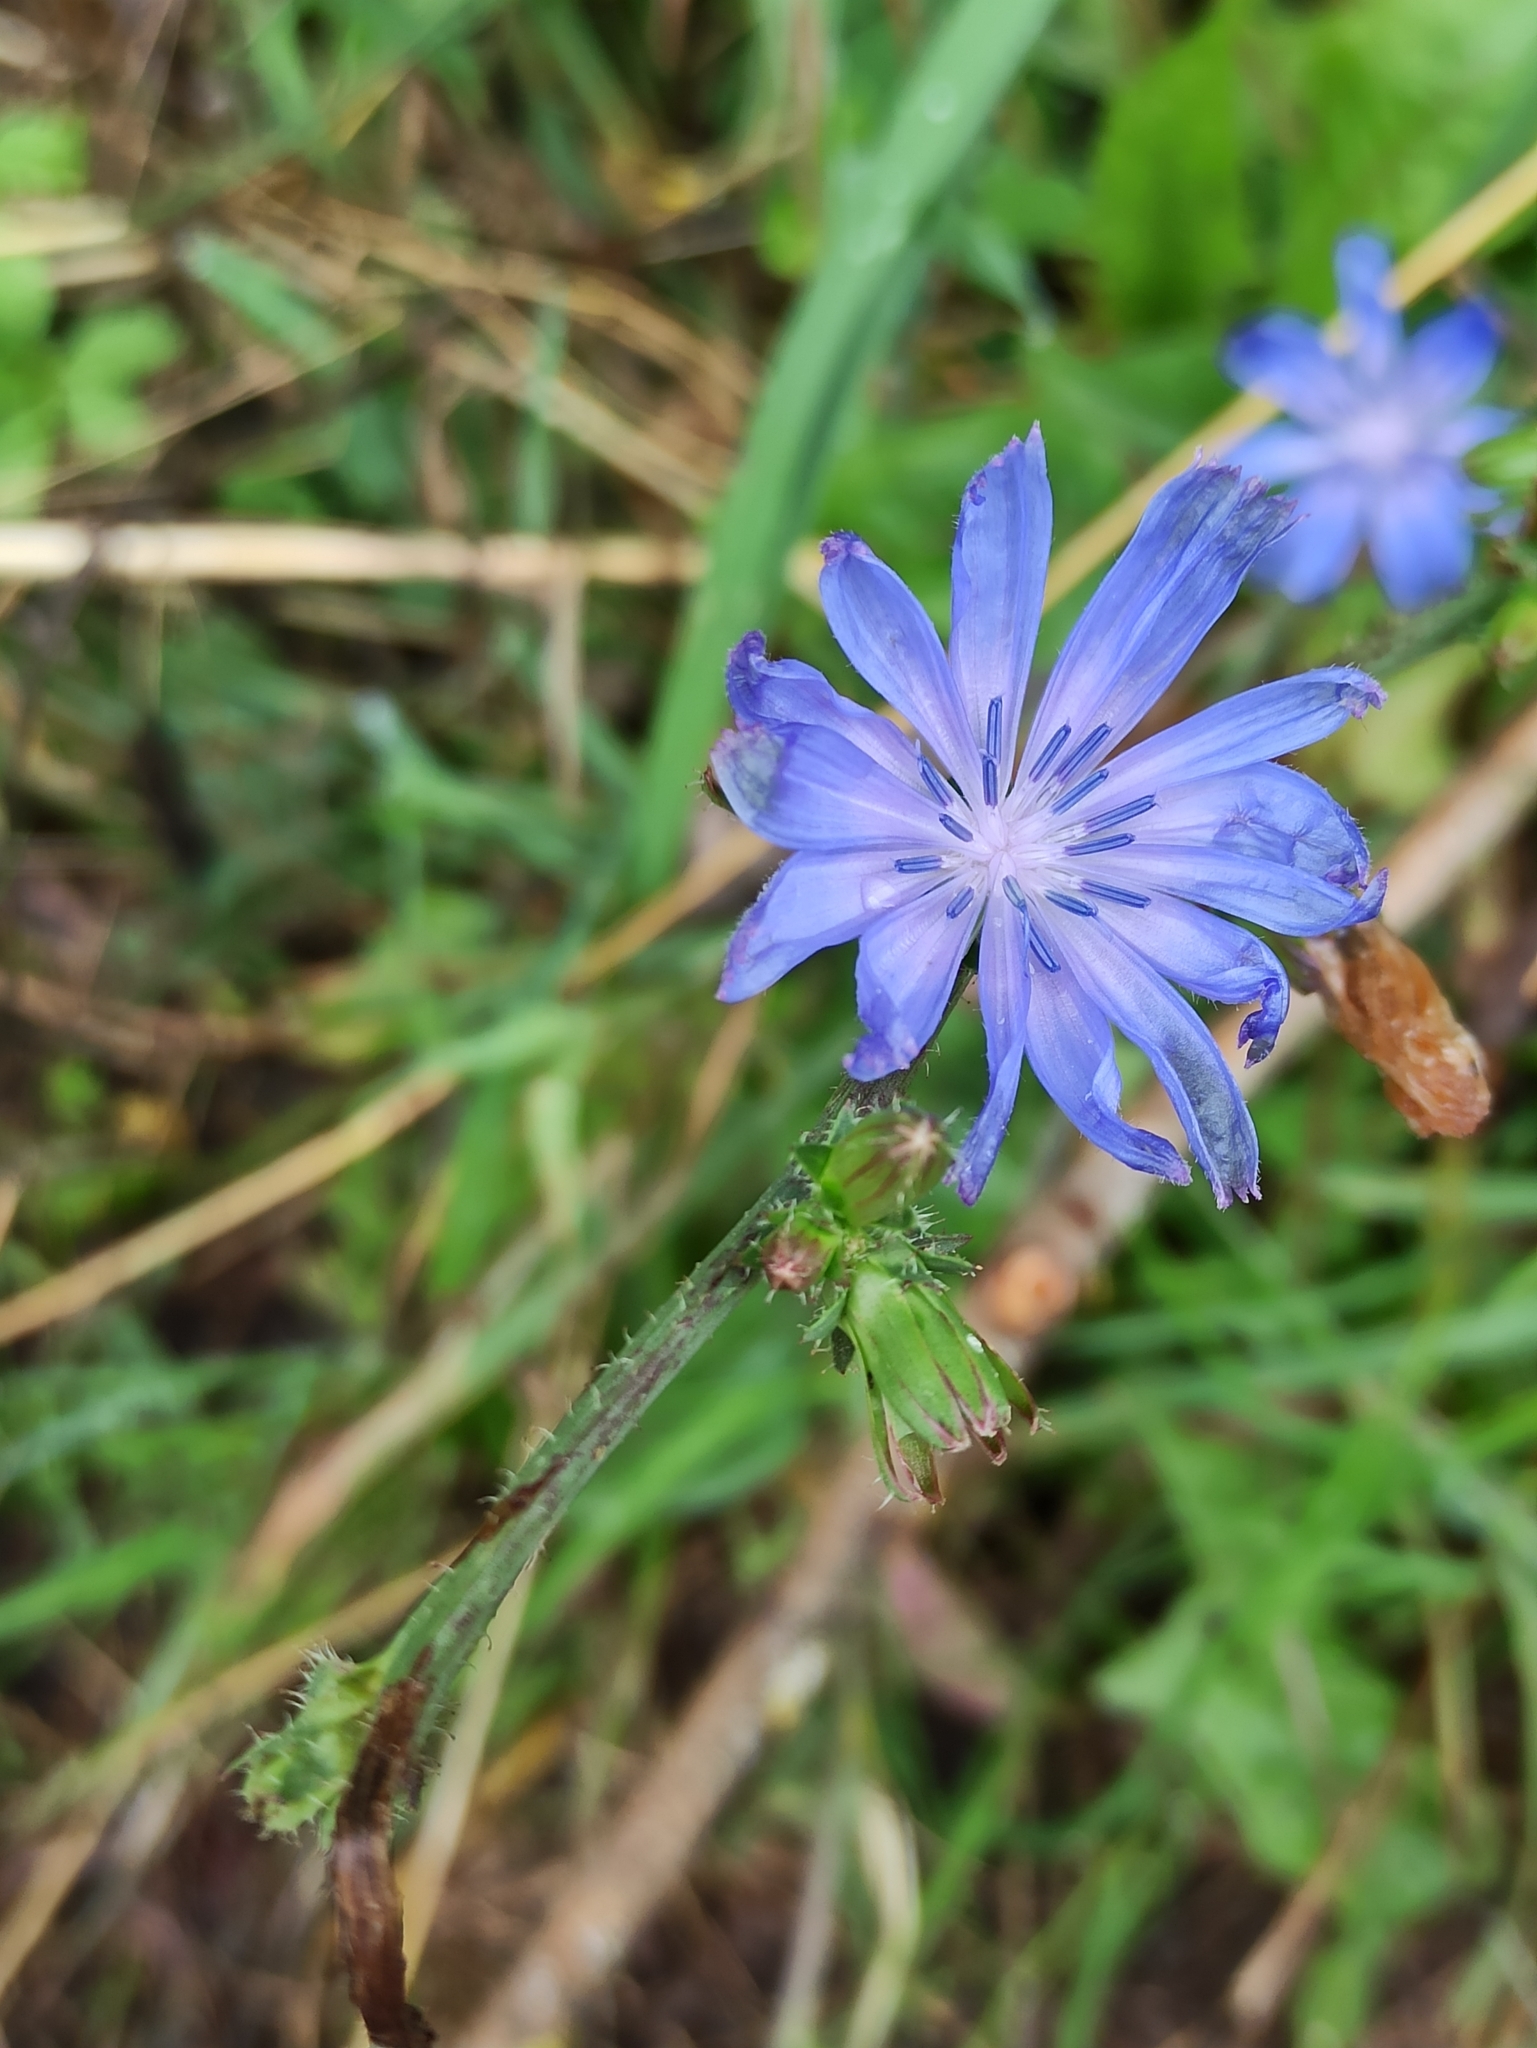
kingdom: Plantae
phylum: Tracheophyta
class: Magnoliopsida
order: Asterales
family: Asteraceae
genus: Cichorium
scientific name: Cichorium intybus
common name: Chicory
